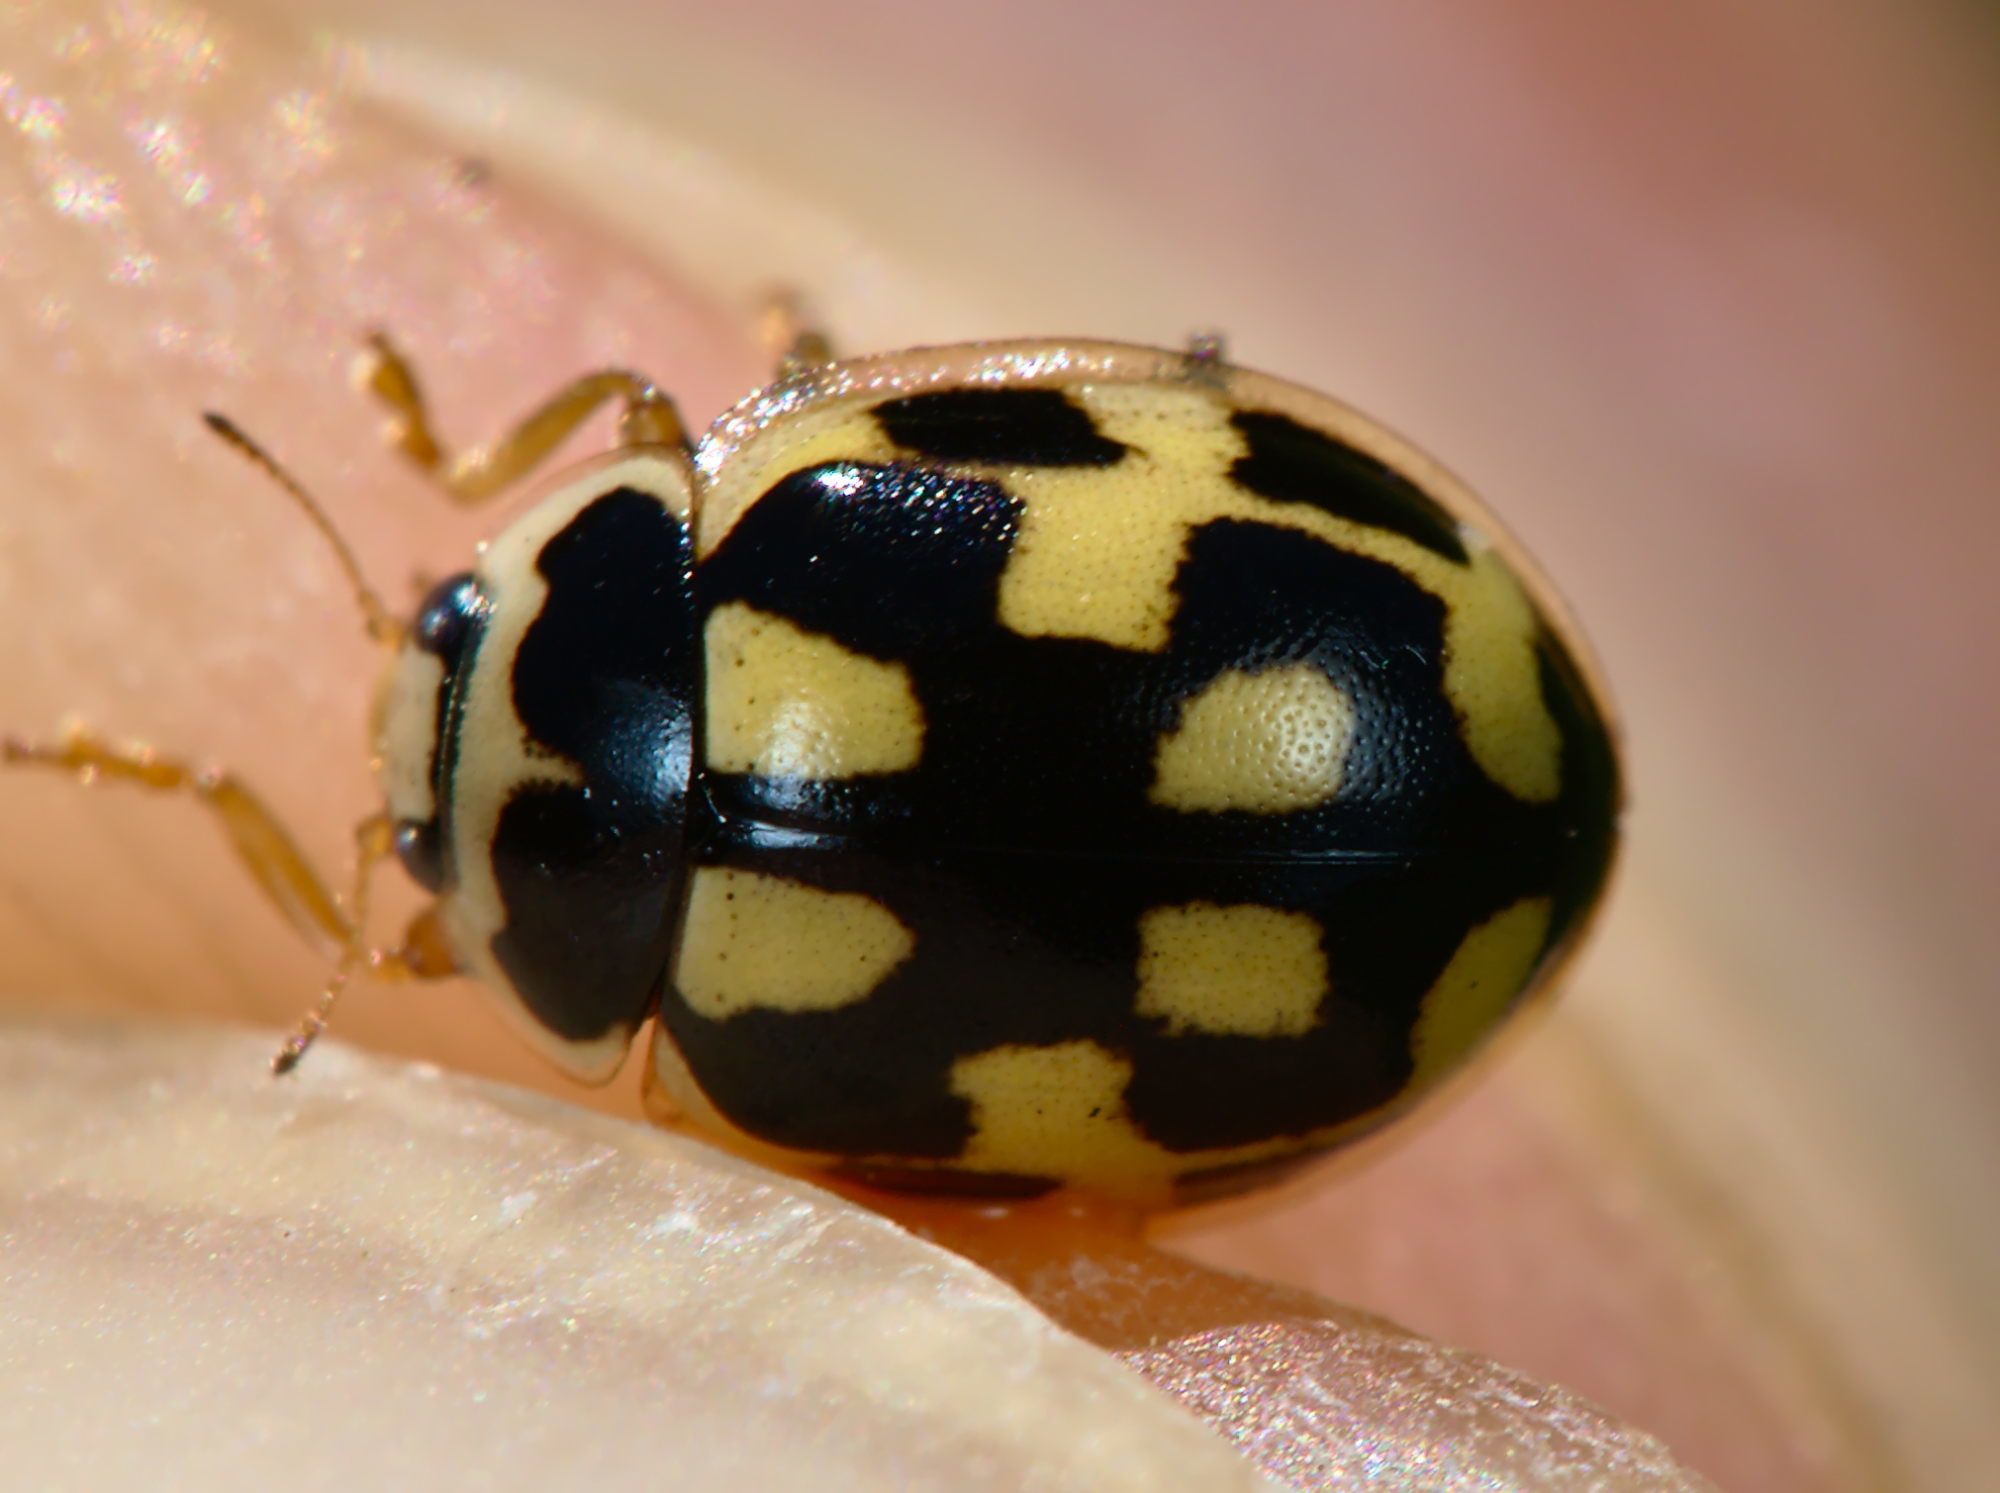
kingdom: Animalia
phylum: Arthropoda
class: Insecta
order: Coleoptera
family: Coccinellidae
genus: Propylaea
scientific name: Propylaea quatuordecimpunctata
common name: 14-spotted ladybird beetle
